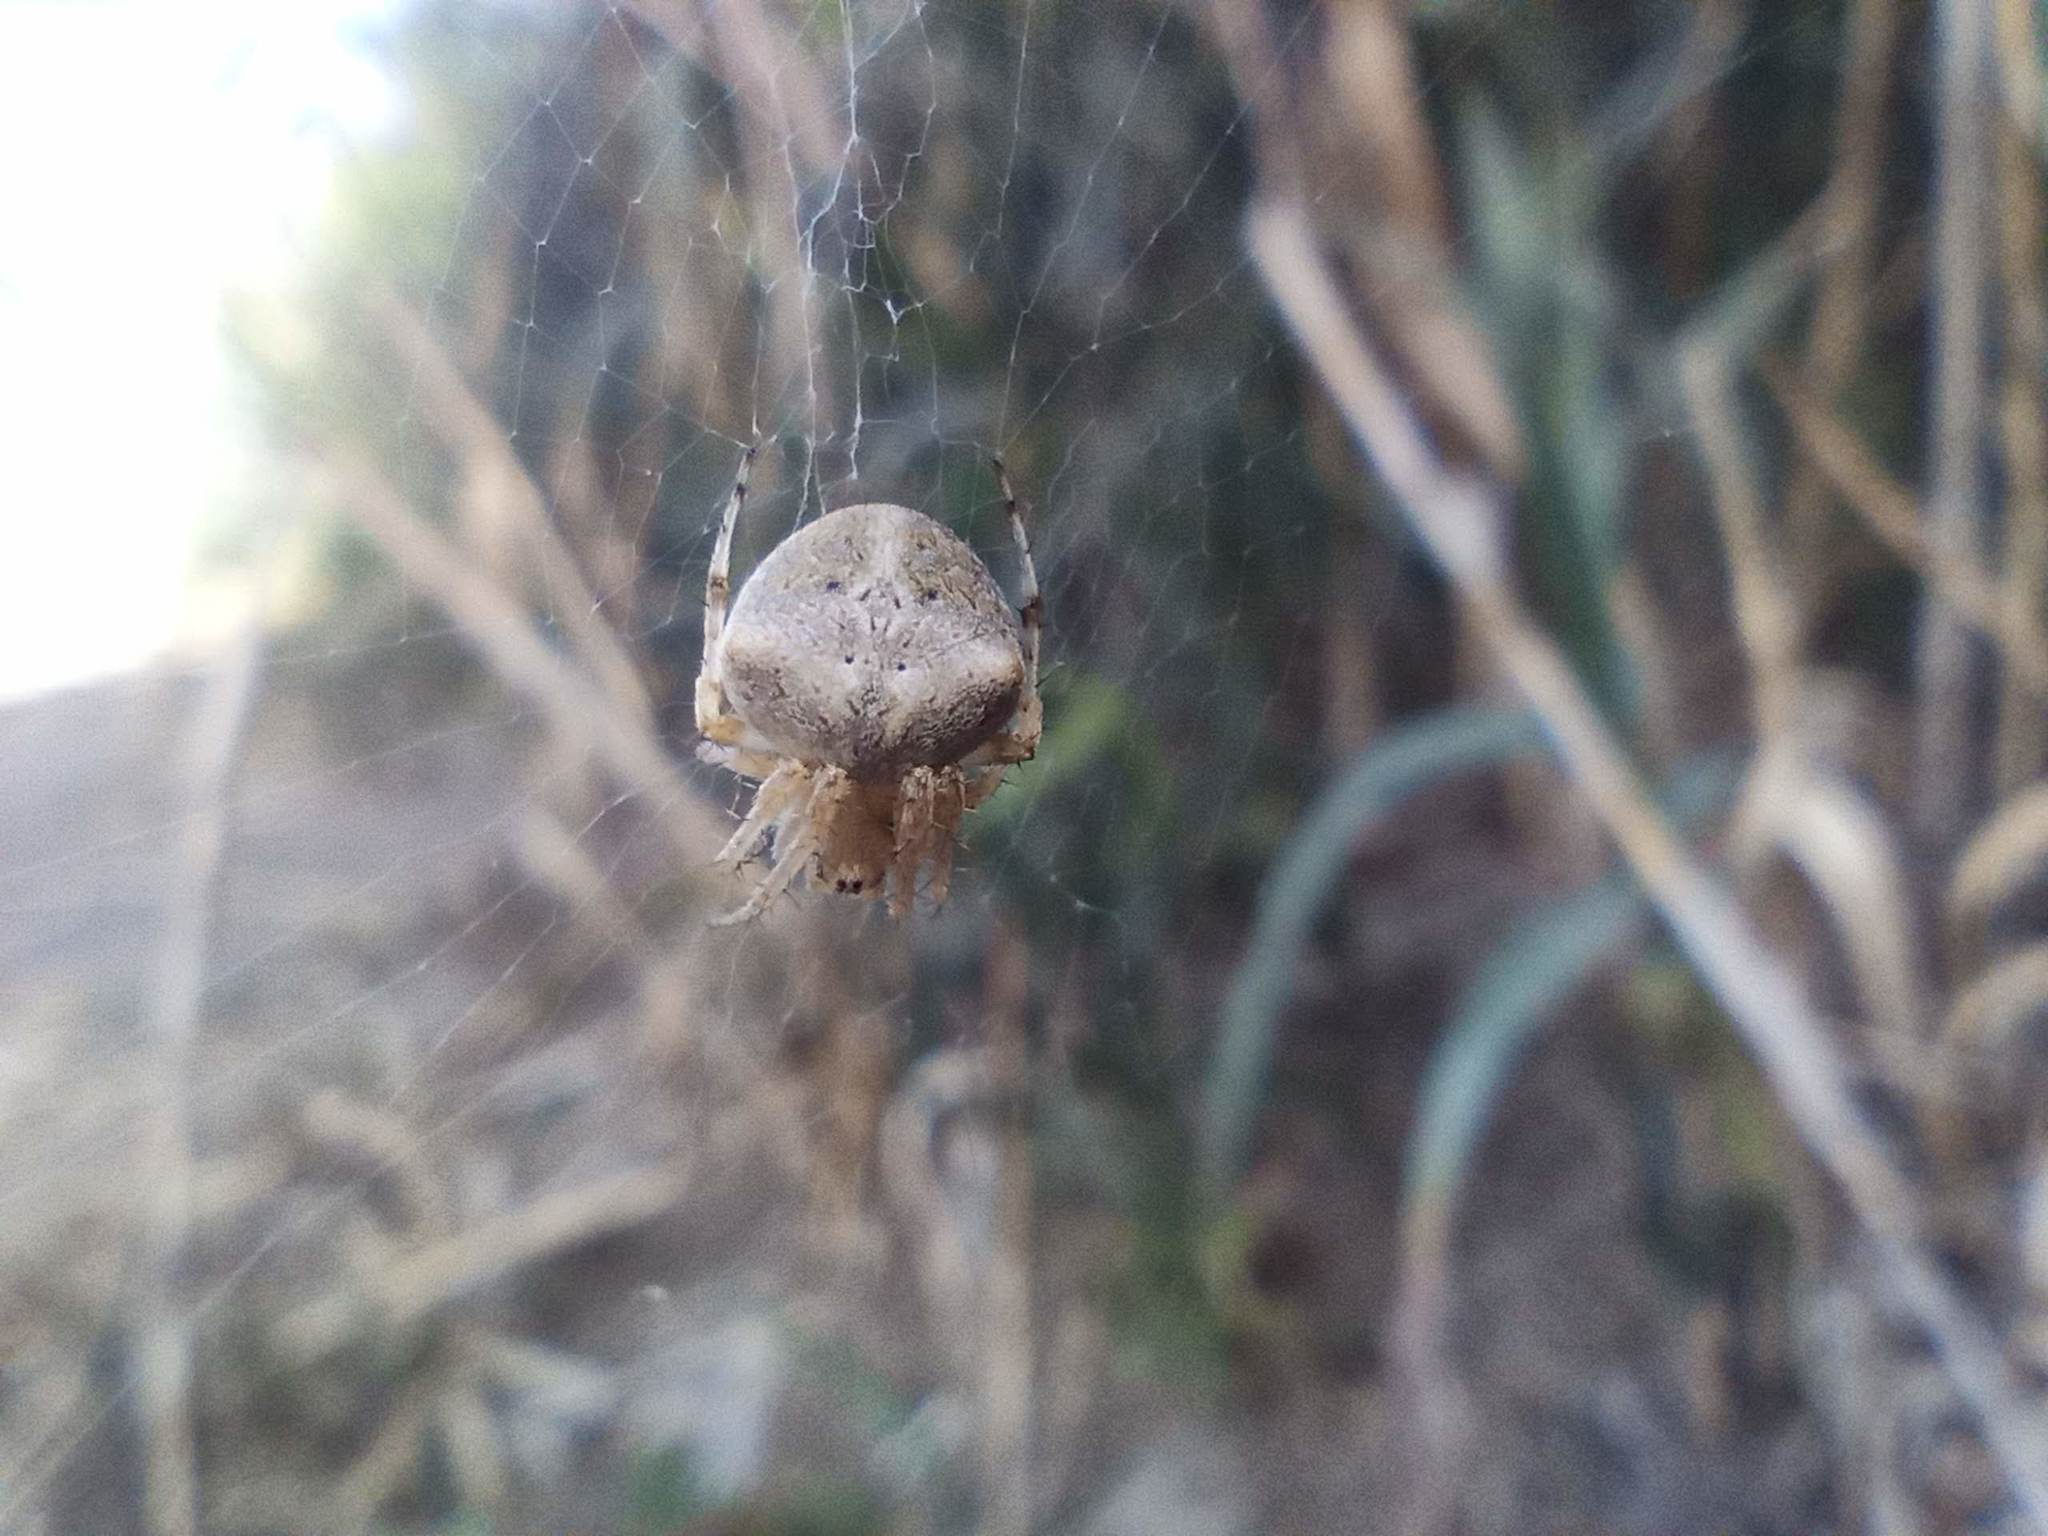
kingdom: Animalia
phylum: Arthropoda
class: Arachnida
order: Araneae
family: Araneidae
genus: Neoscona
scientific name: Neoscona subfusca
